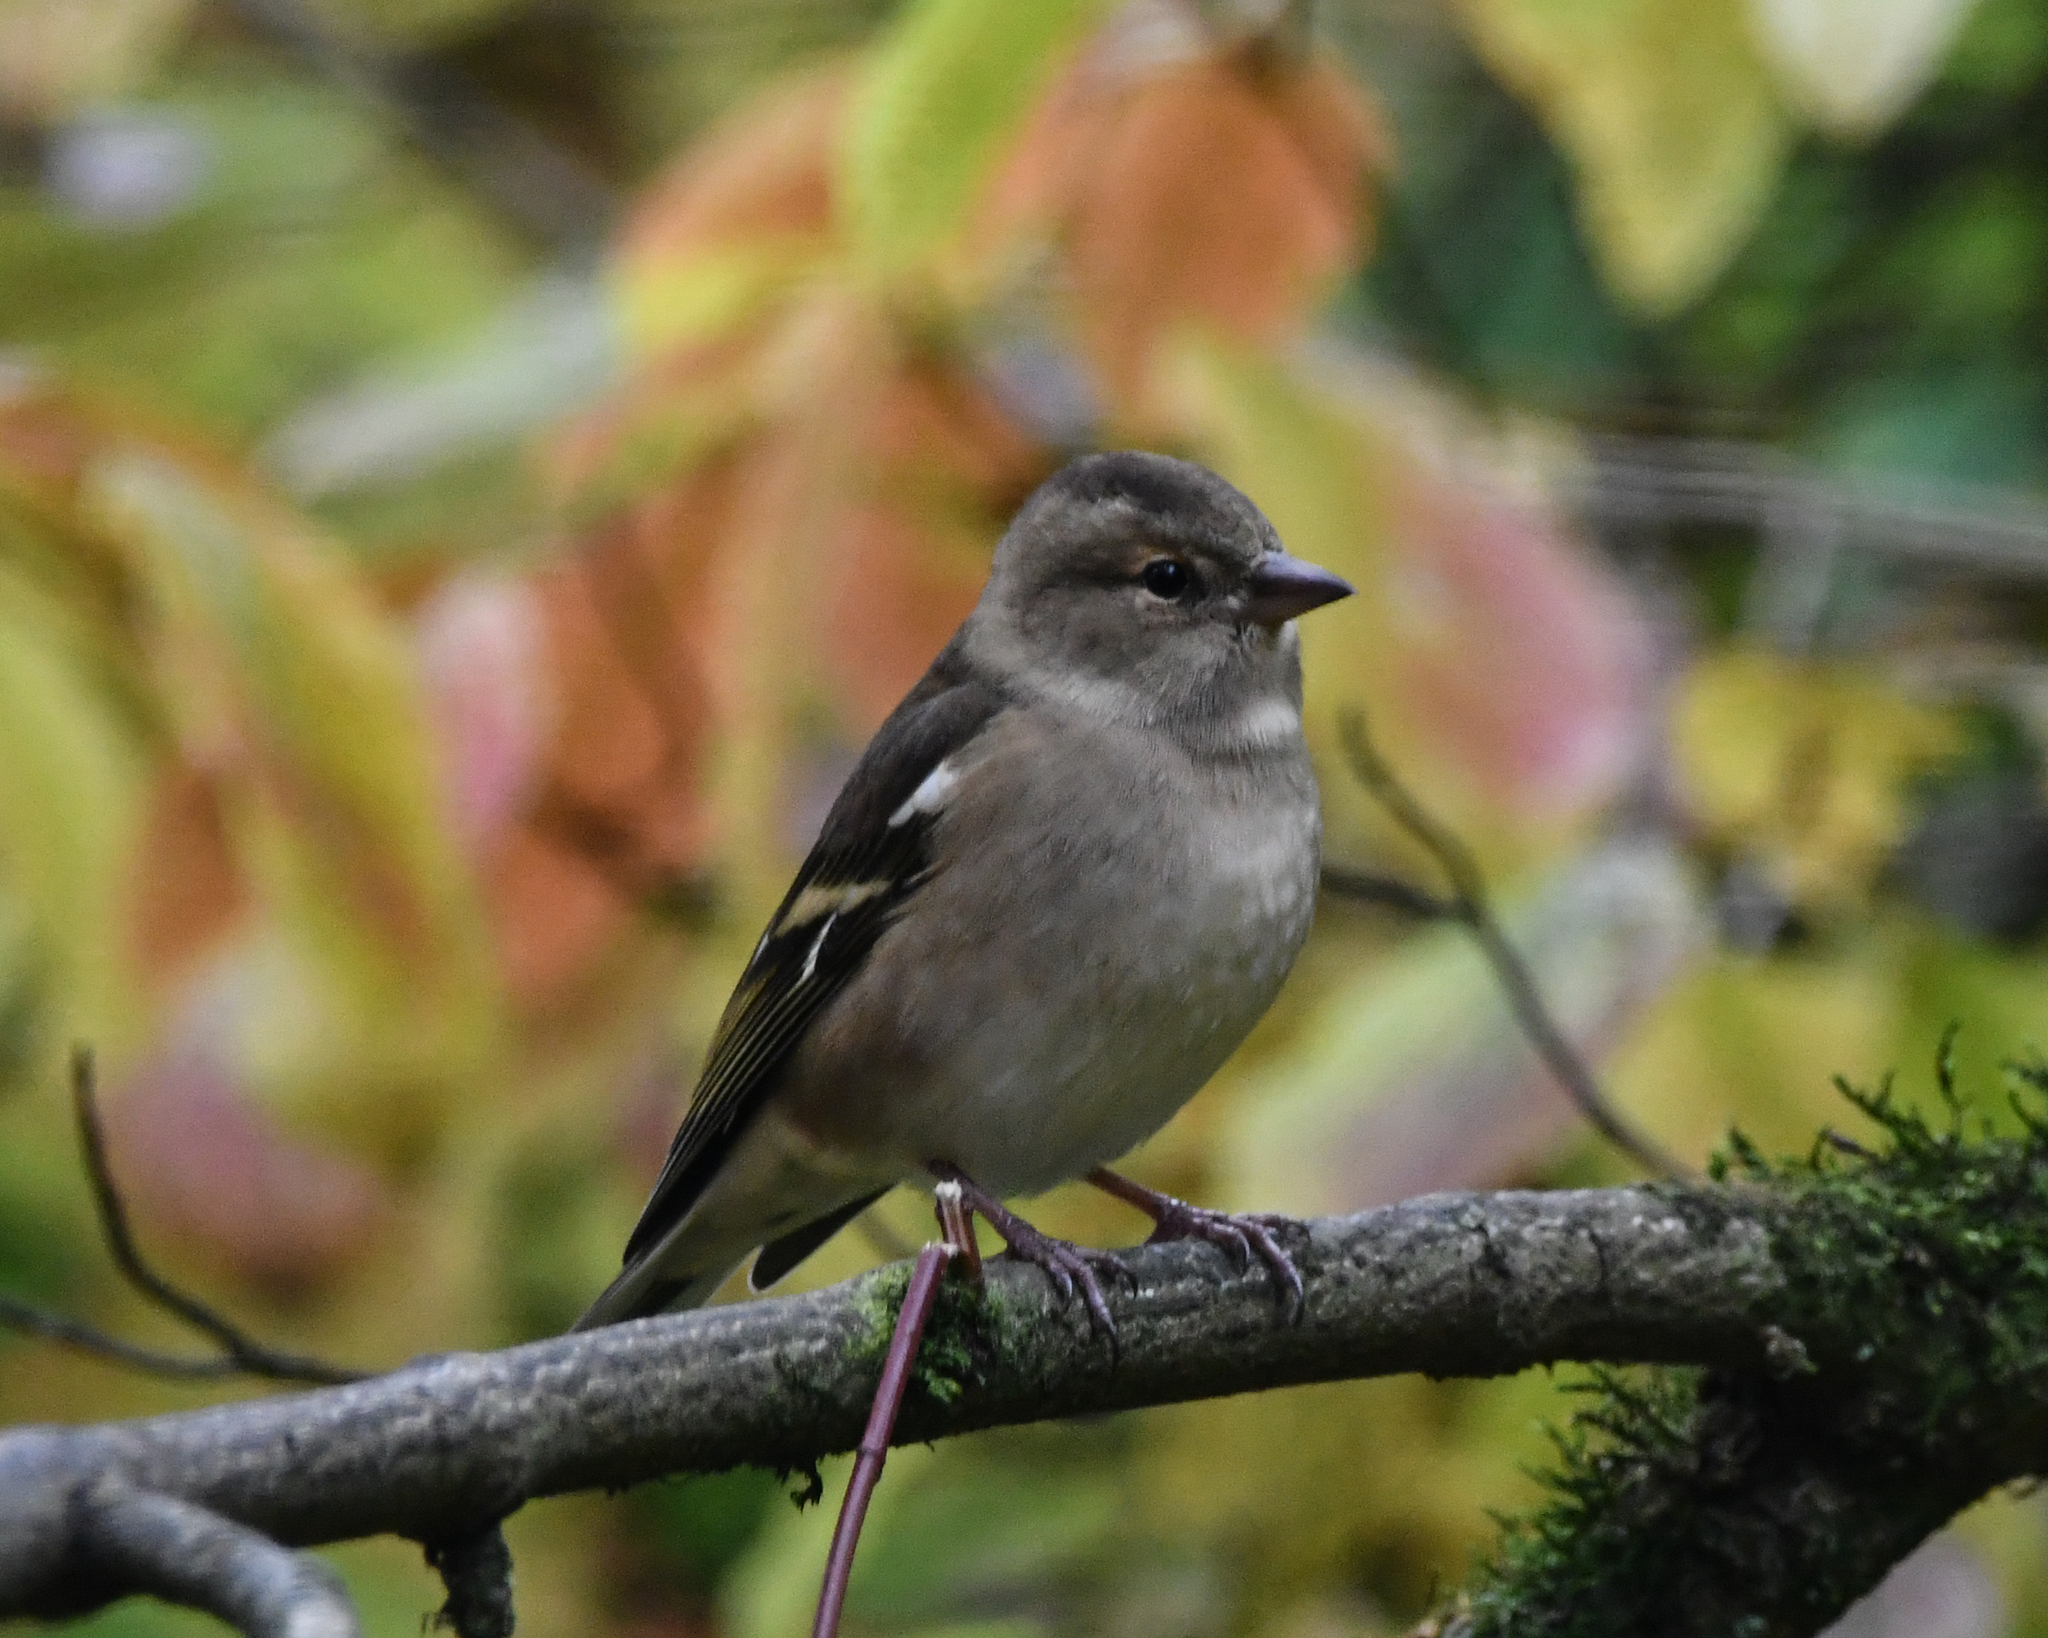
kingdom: Animalia
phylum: Chordata
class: Aves
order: Passeriformes
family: Fringillidae
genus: Fringilla
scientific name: Fringilla coelebs
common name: Common chaffinch
